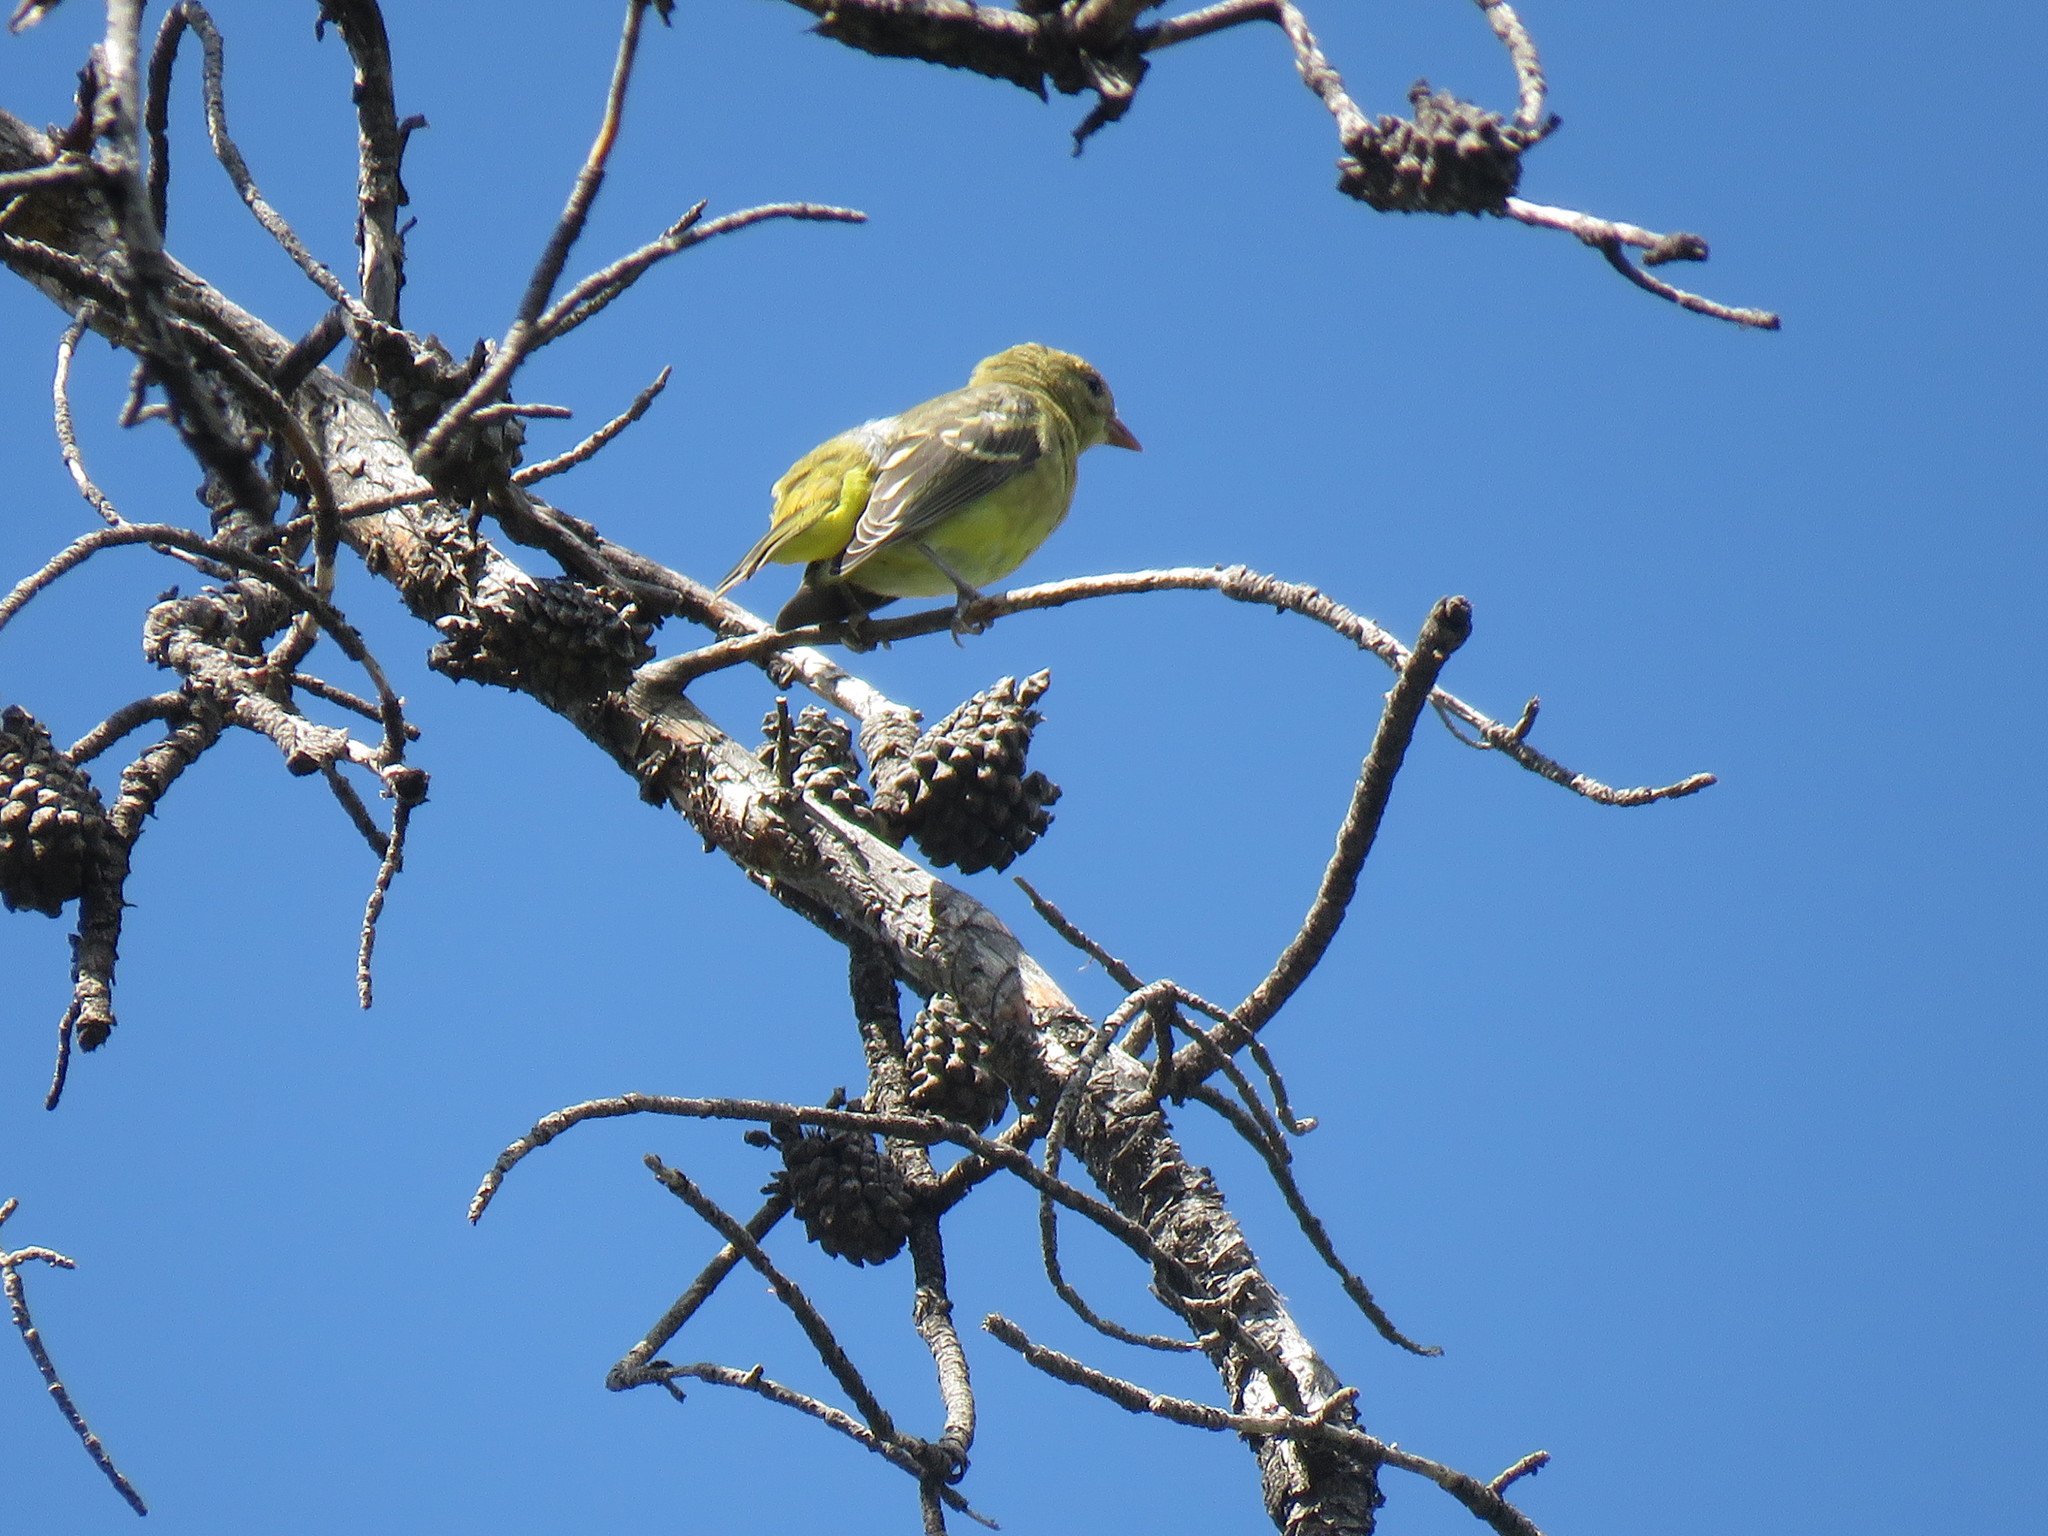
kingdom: Animalia
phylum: Chordata
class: Aves
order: Passeriformes
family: Cardinalidae
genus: Piranga
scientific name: Piranga ludoviciana
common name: Western tanager
